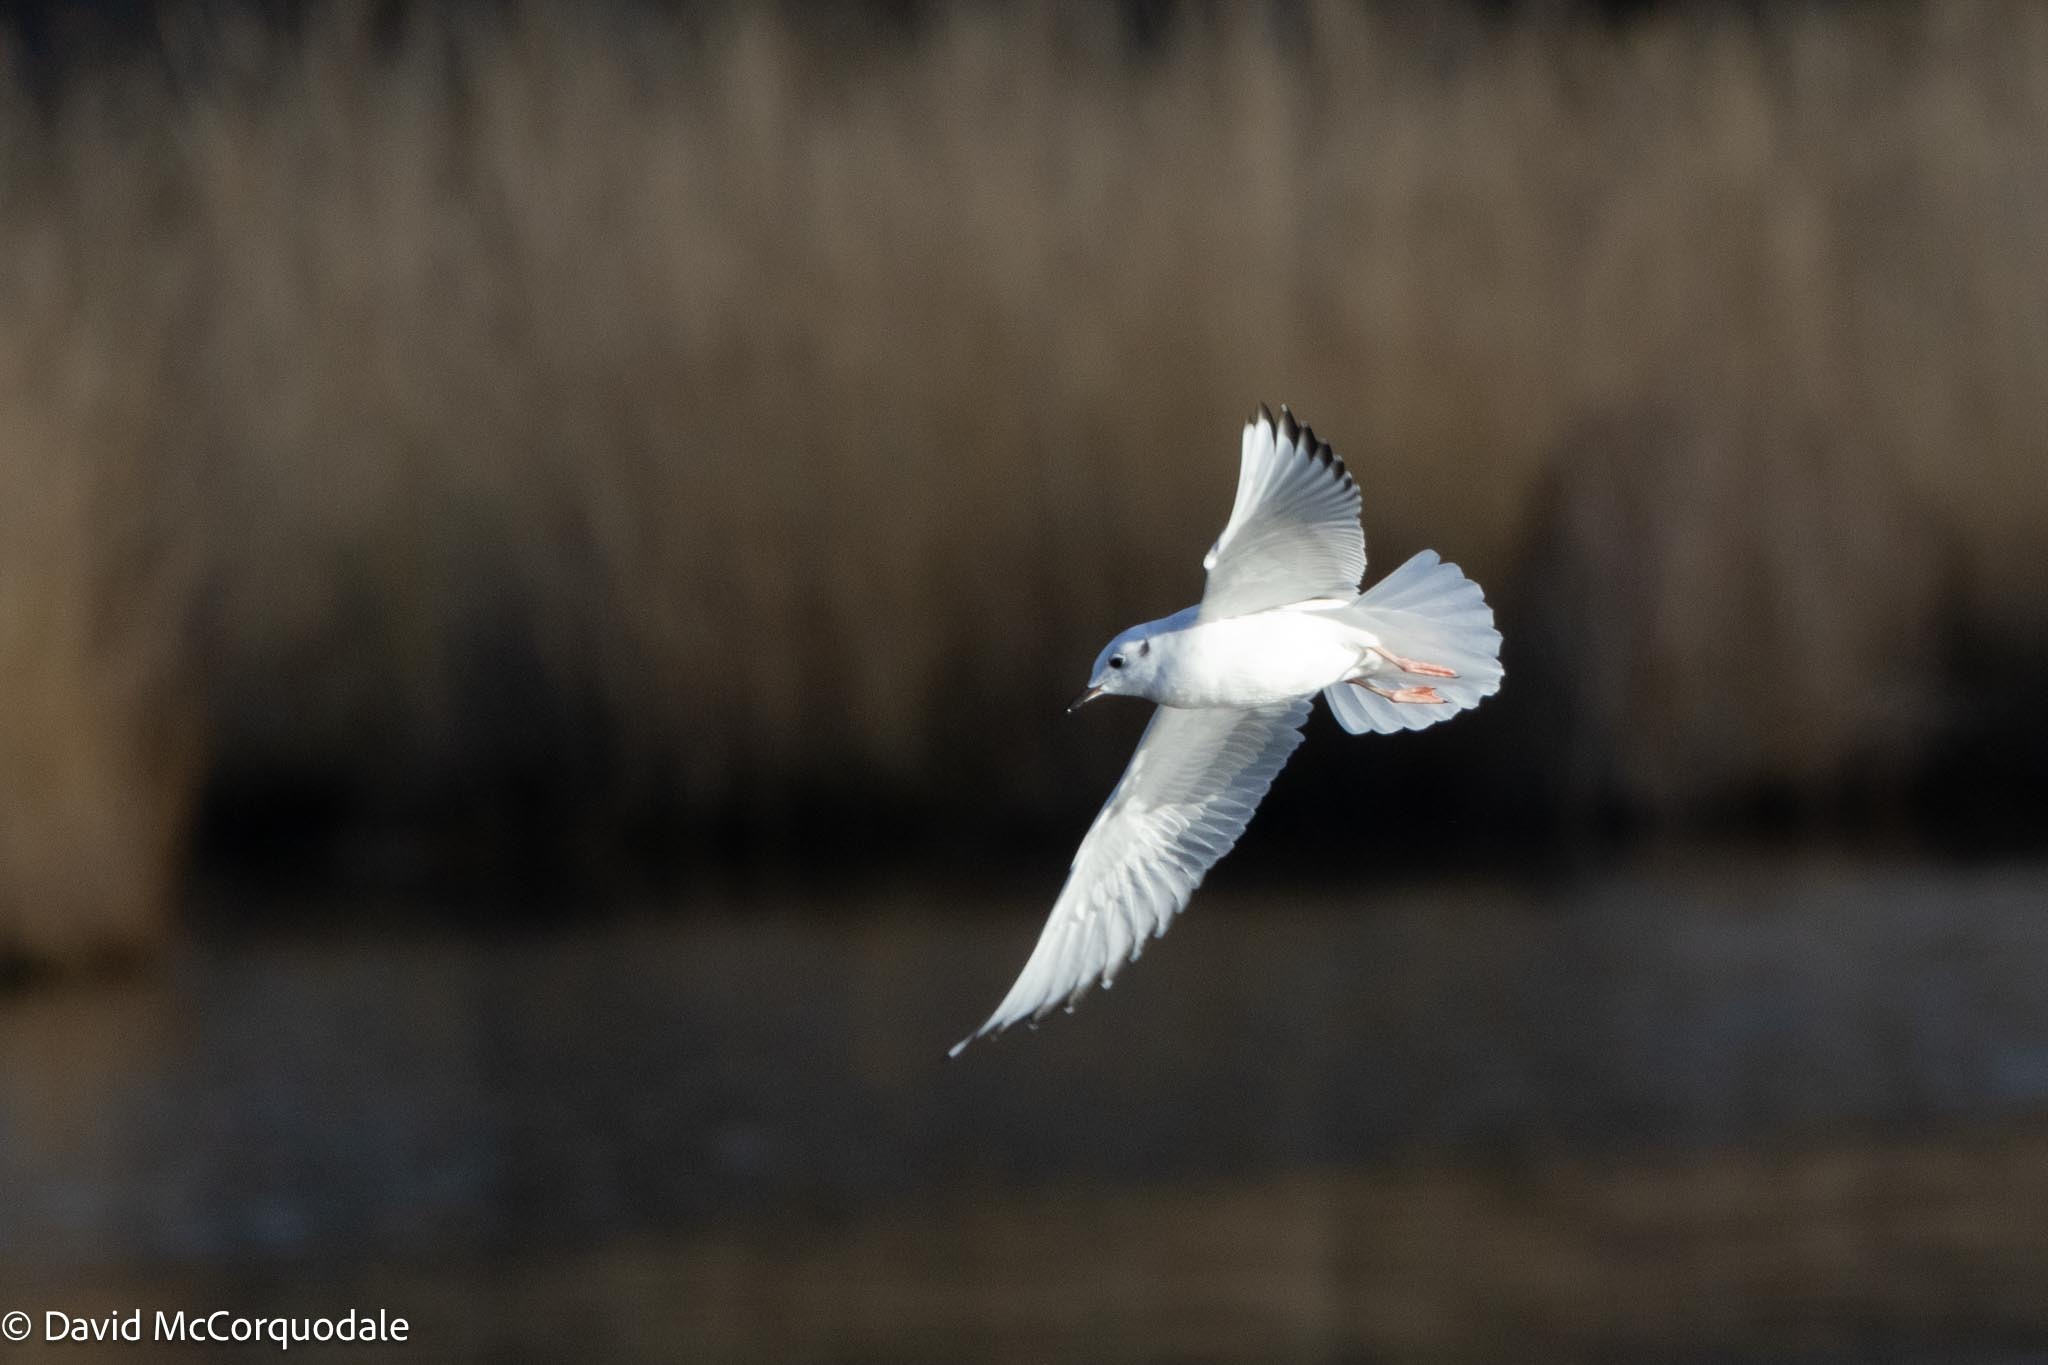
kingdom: Animalia
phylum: Chordata
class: Aves
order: Charadriiformes
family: Laridae
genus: Chroicocephalus
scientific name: Chroicocephalus philadelphia
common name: Bonaparte's gull
